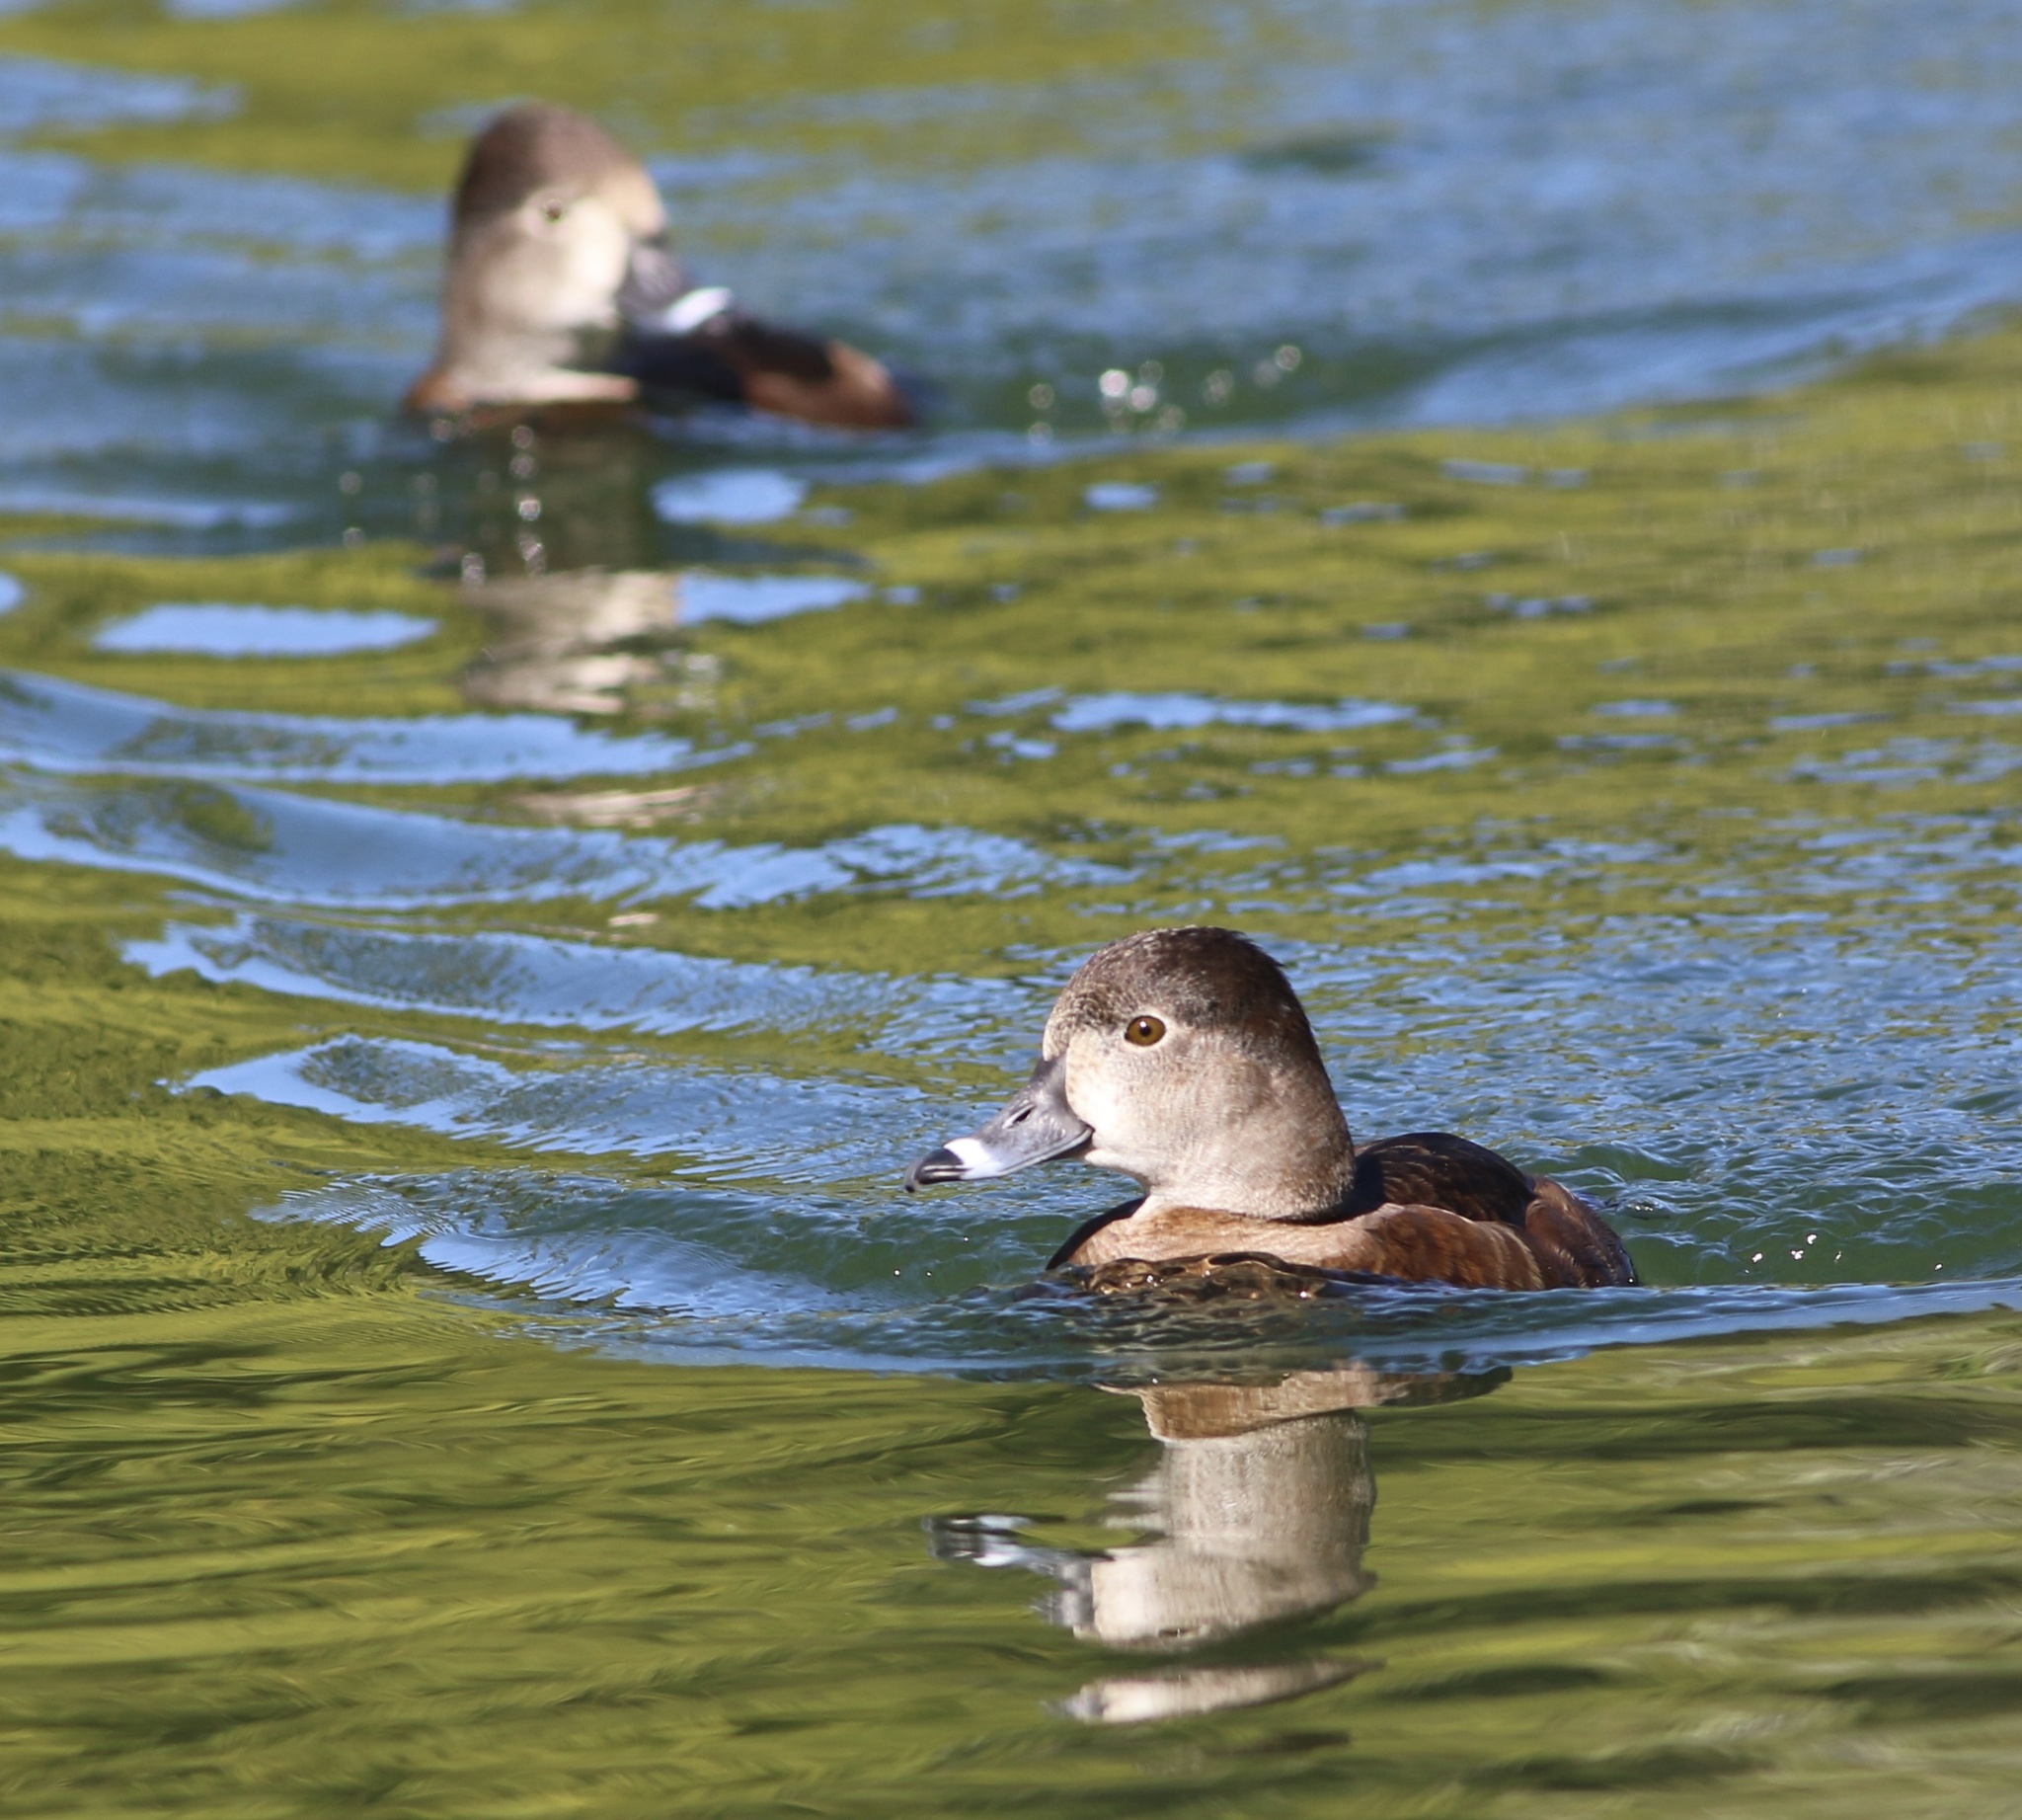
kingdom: Animalia
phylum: Chordata
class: Aves
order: Anseriformes
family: Anatidae
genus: Aythya
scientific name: Aythya collaris
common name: Ring-necked duck
